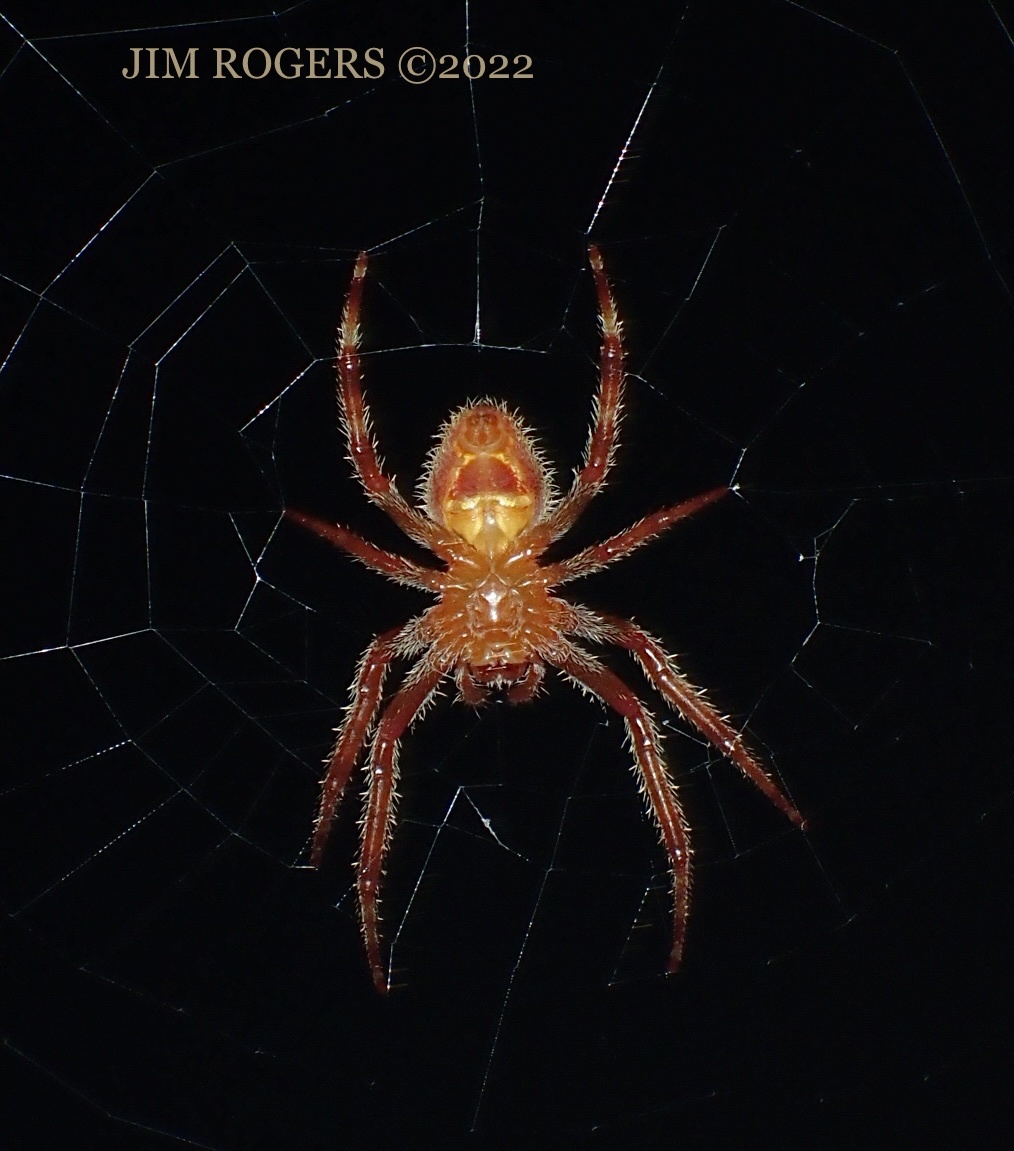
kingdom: Animalia
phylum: Arthropoda
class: Arachnida
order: Araneae
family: Araneidae
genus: Eriophora
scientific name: Eriophora ravilla
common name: Orb weavers
